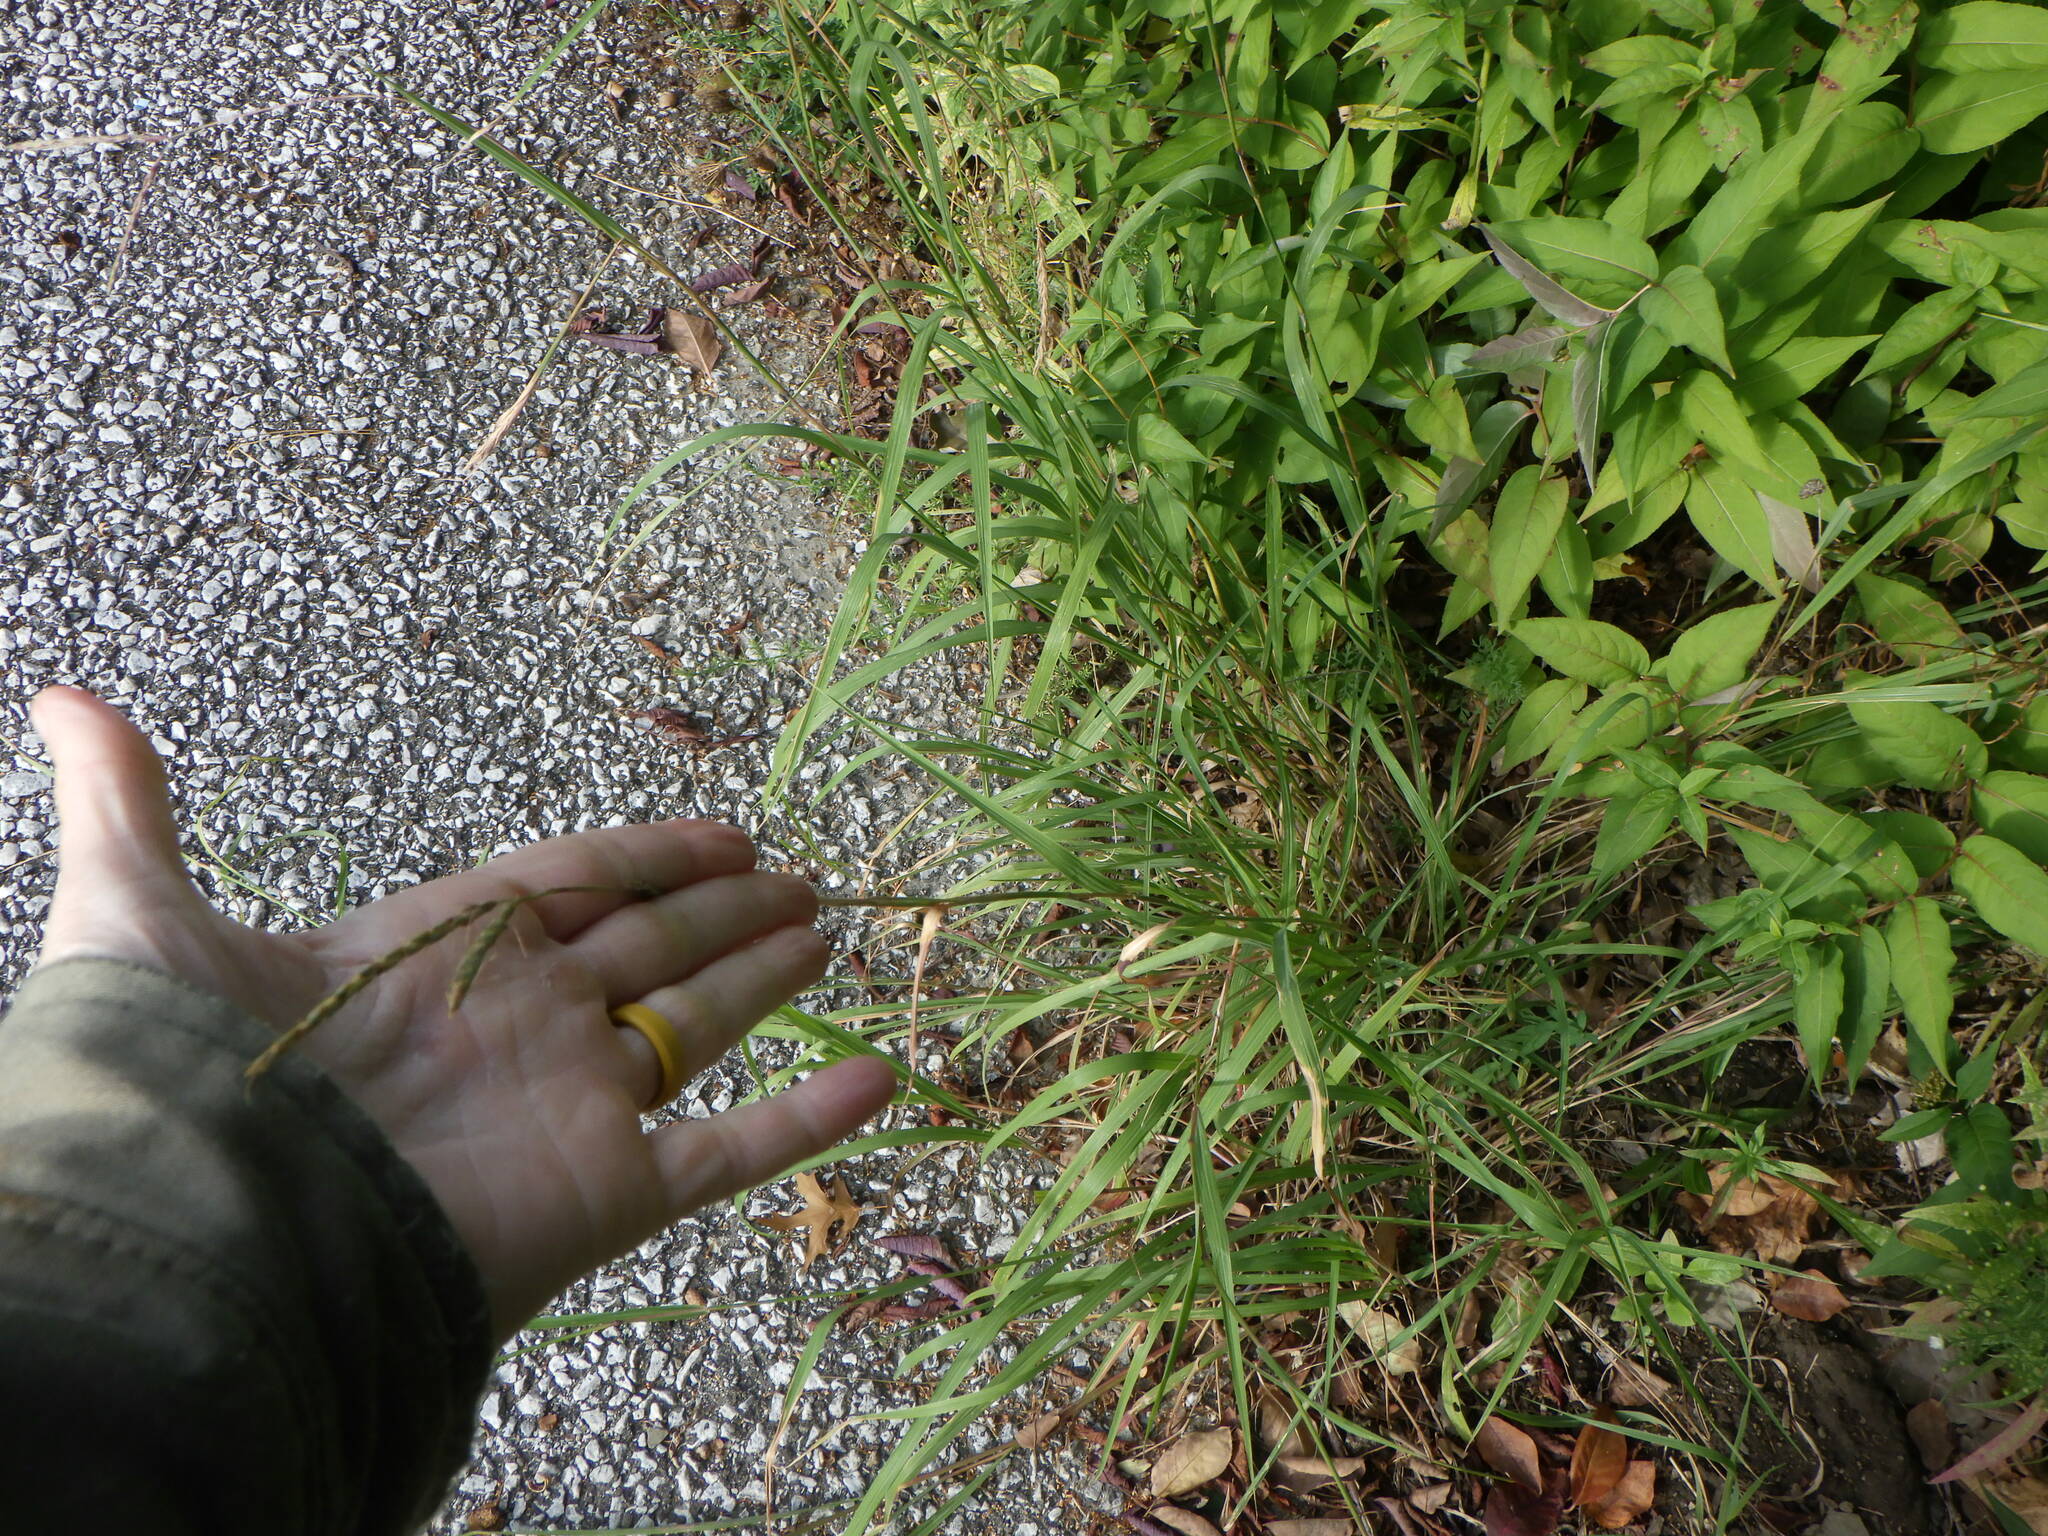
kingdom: Plantae
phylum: Tracheophyta
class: Liliopsida
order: Poales
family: Poaceae
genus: Andropogon
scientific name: Andropogon gerardi
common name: Big bluestem
